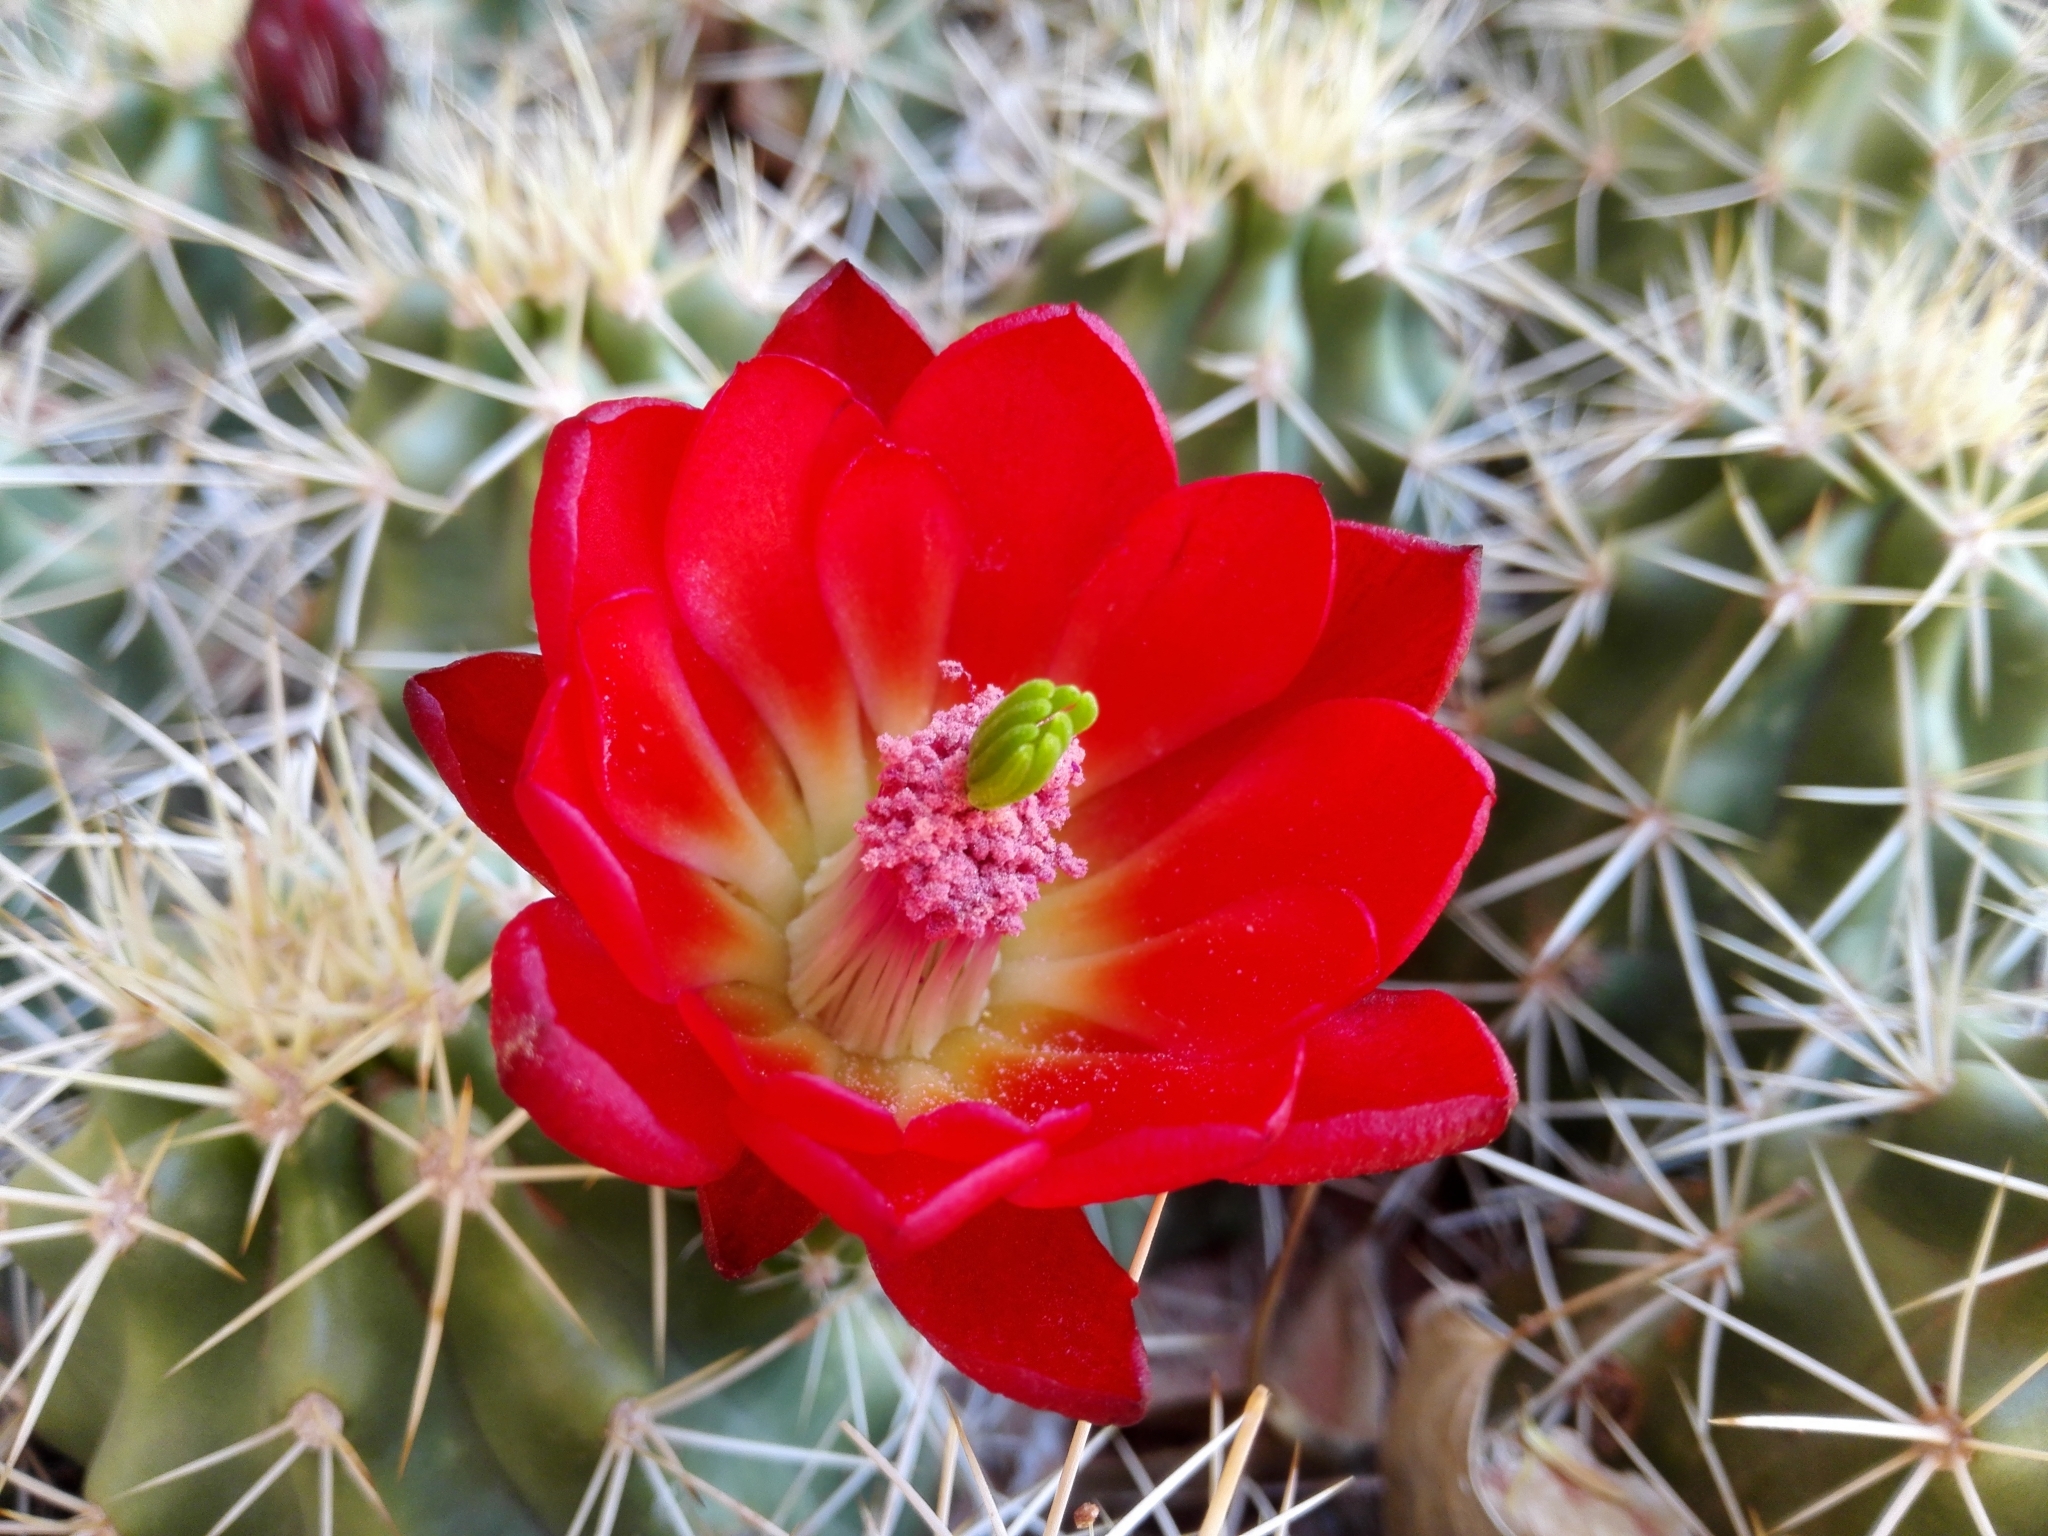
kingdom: Plantae
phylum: Tracheophyta
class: Magnoliopsida
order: Caryophyllales
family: Cactaceae
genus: Echinocereus
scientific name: Echinocereus triglochidiatus
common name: Claretcup hedgehog
